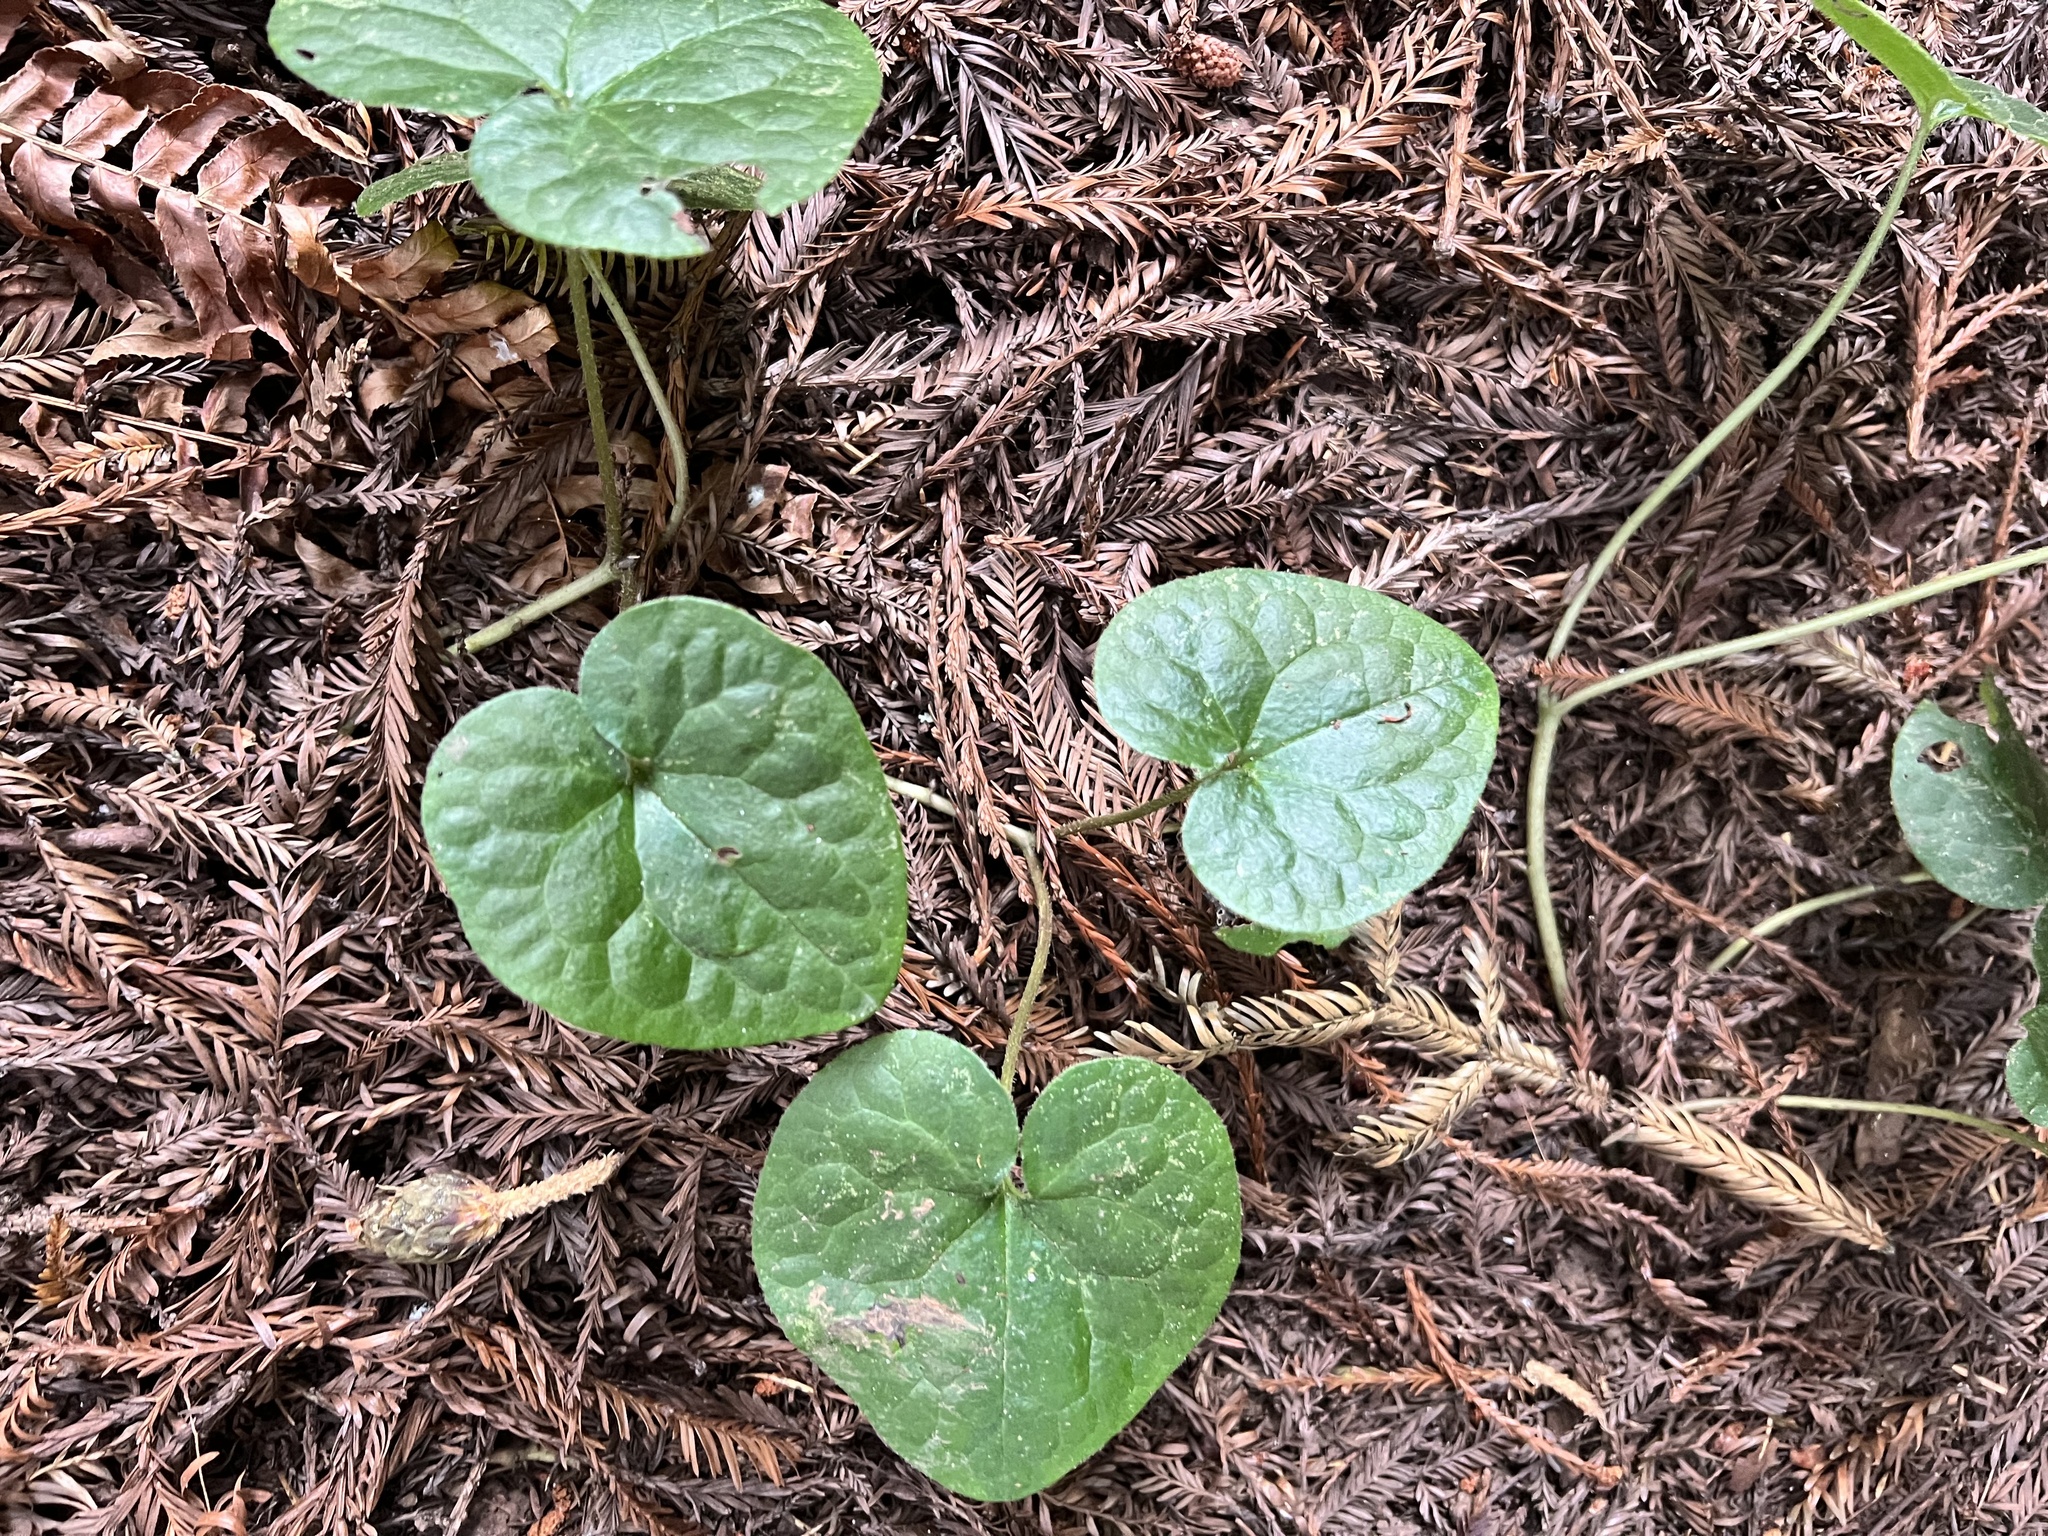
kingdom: Plantae
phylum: Tracheophyta
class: Magnoliopsida
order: Piperales
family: Aristolochiaceae
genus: Asarum
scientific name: Asarum caudatum
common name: Wild ginger
